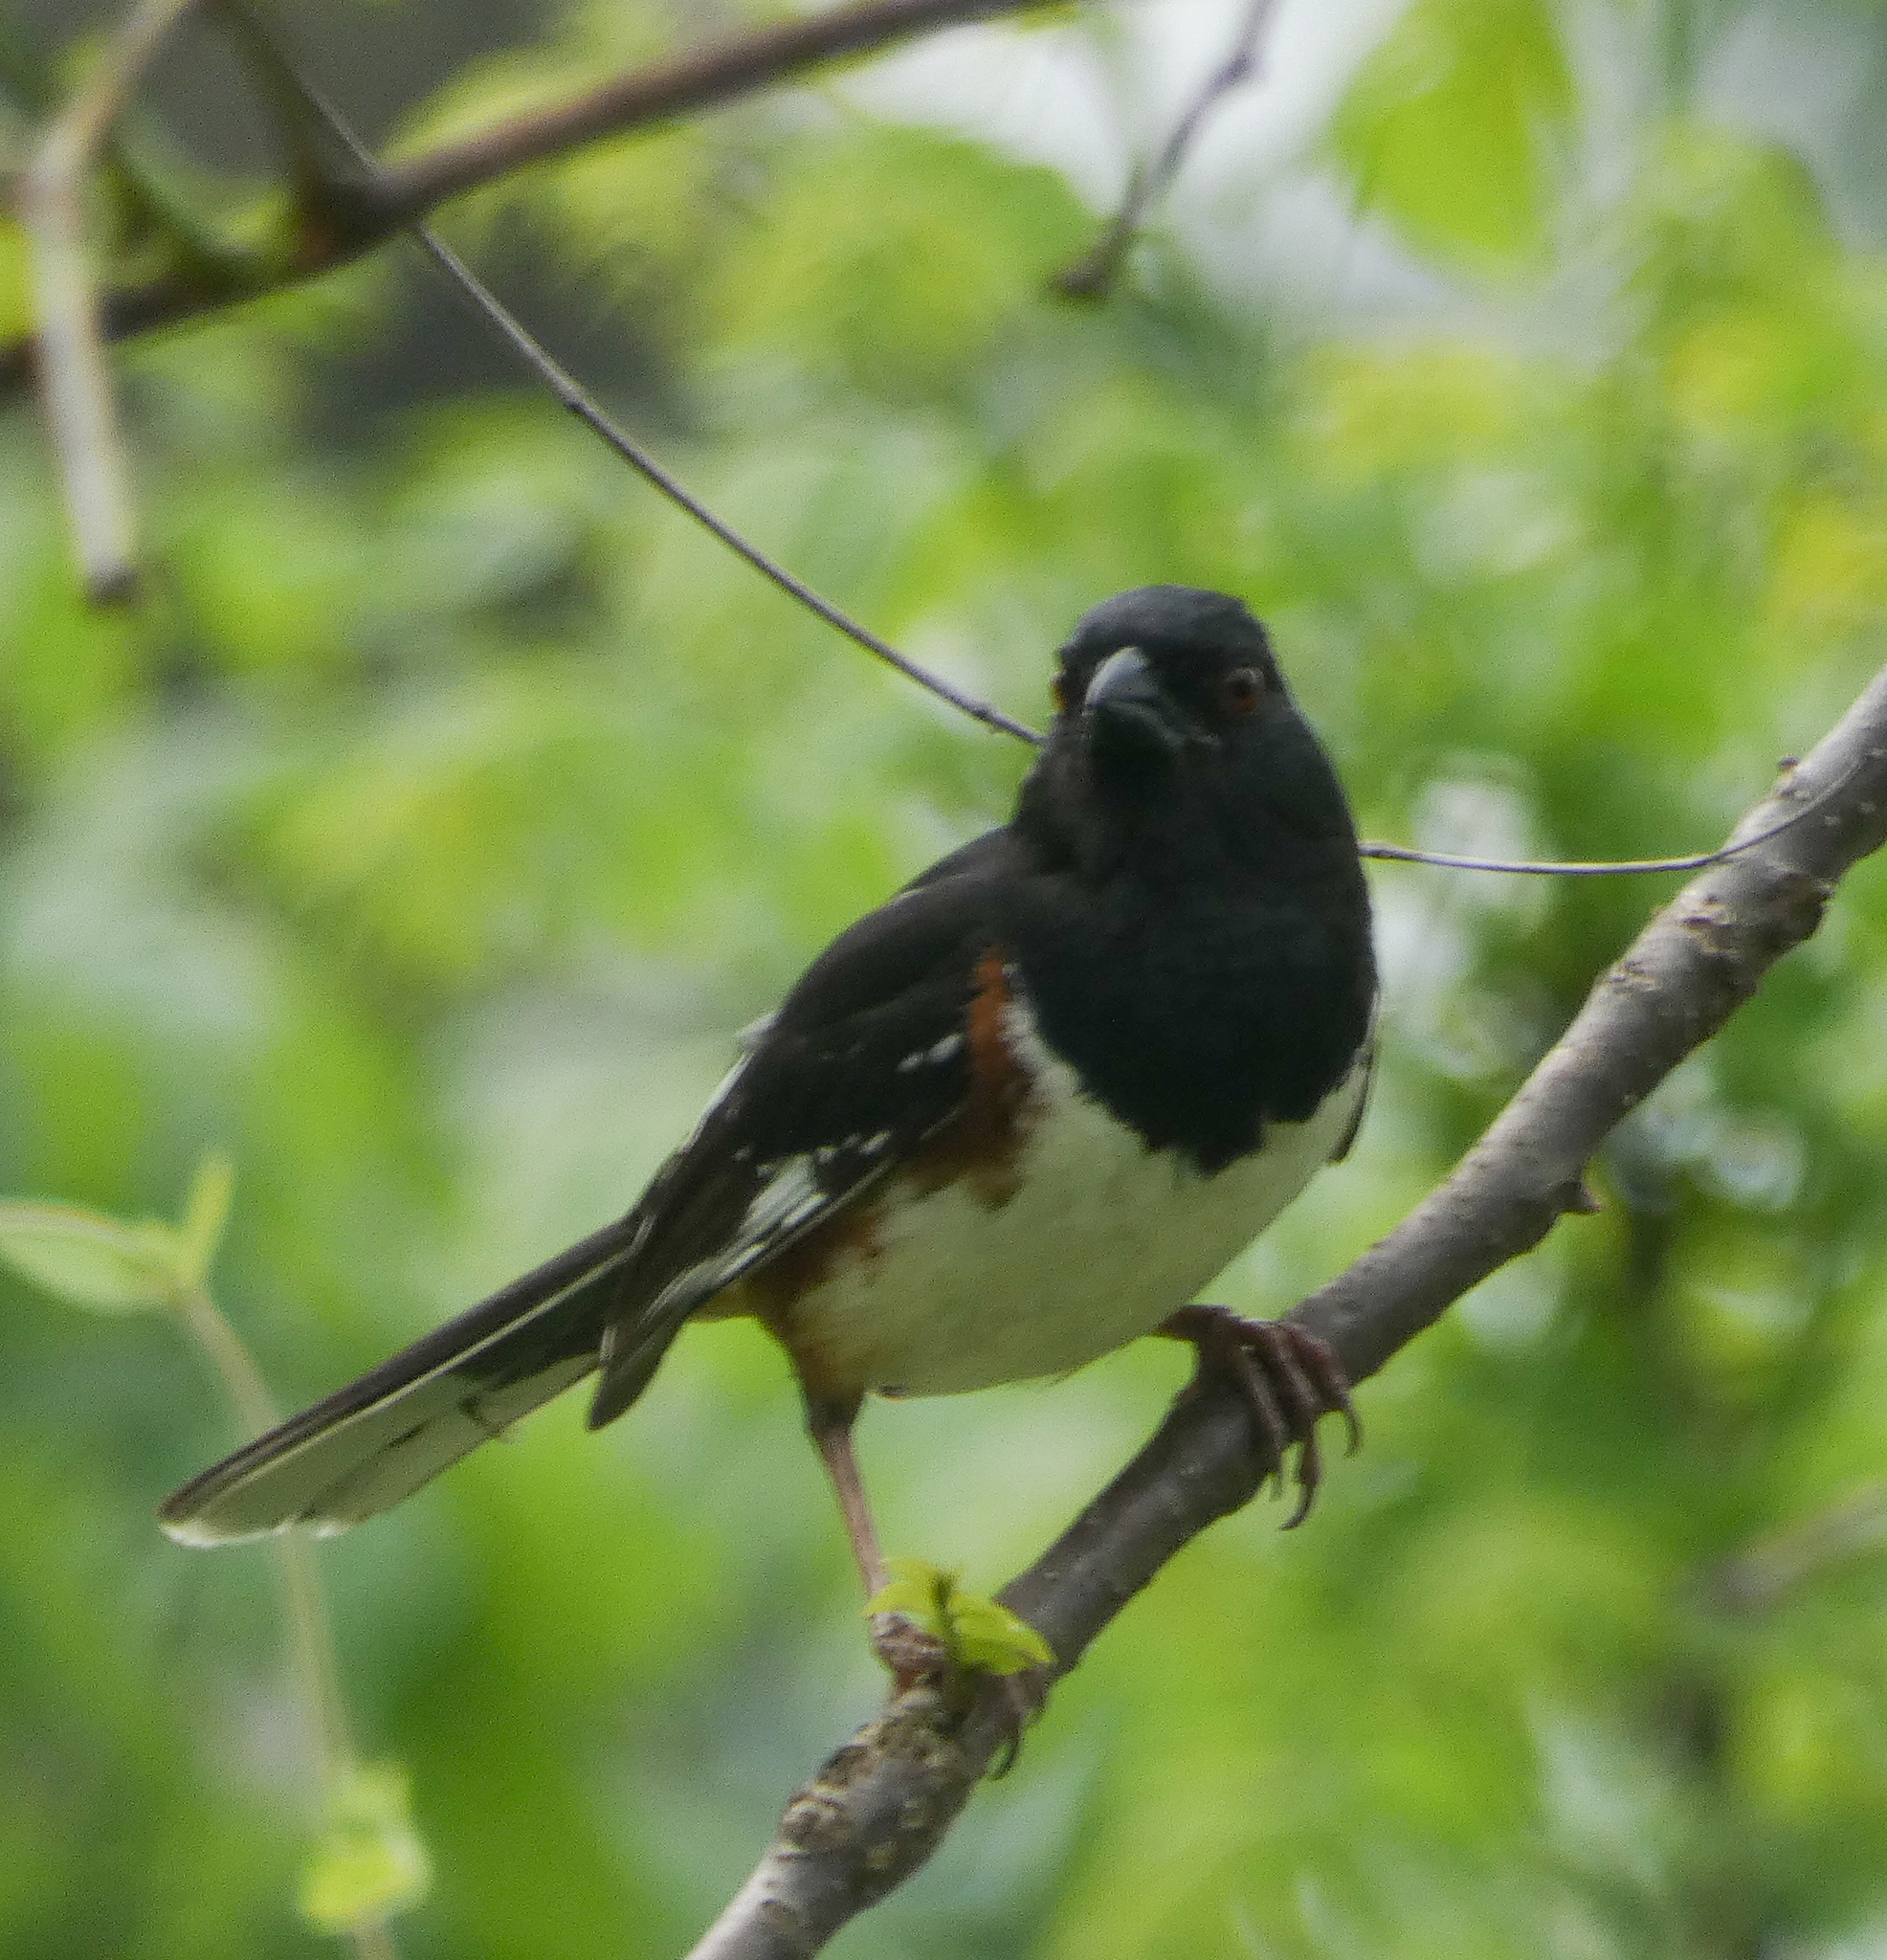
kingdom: Animalia
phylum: Chordata
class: Aves
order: Passeriformes
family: Passerellidae
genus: Pipilo
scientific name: Pipilo erythrophthalmus
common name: Eastern towhee
